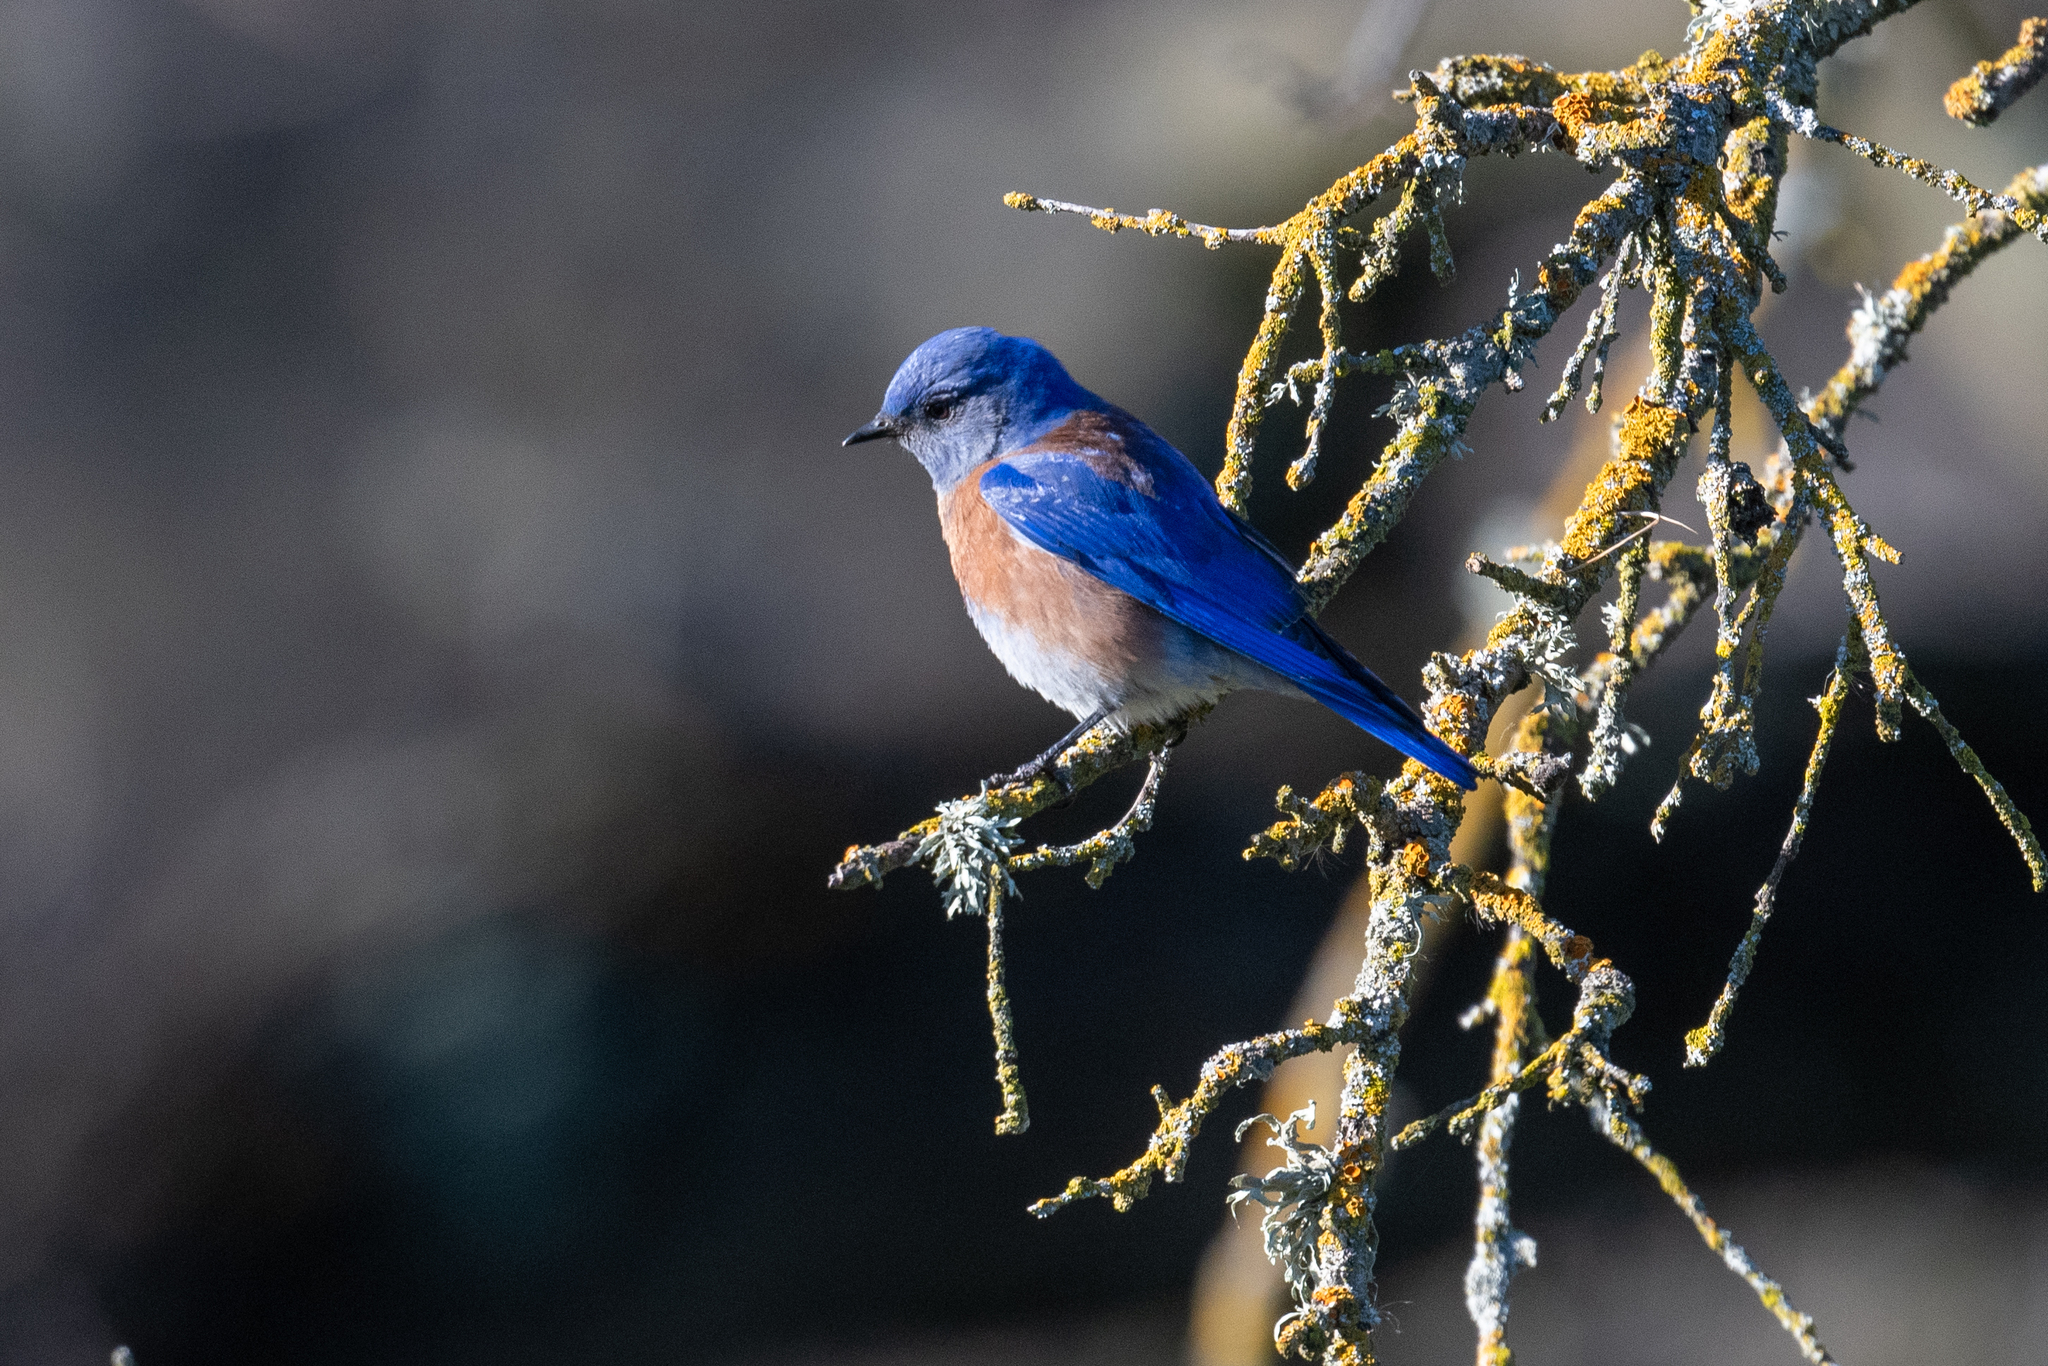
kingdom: Animalia
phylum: Chordata
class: Aves
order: Passeriformes
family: Turdidae
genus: Sialia
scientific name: Sialia mexicana
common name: Western bluebird
